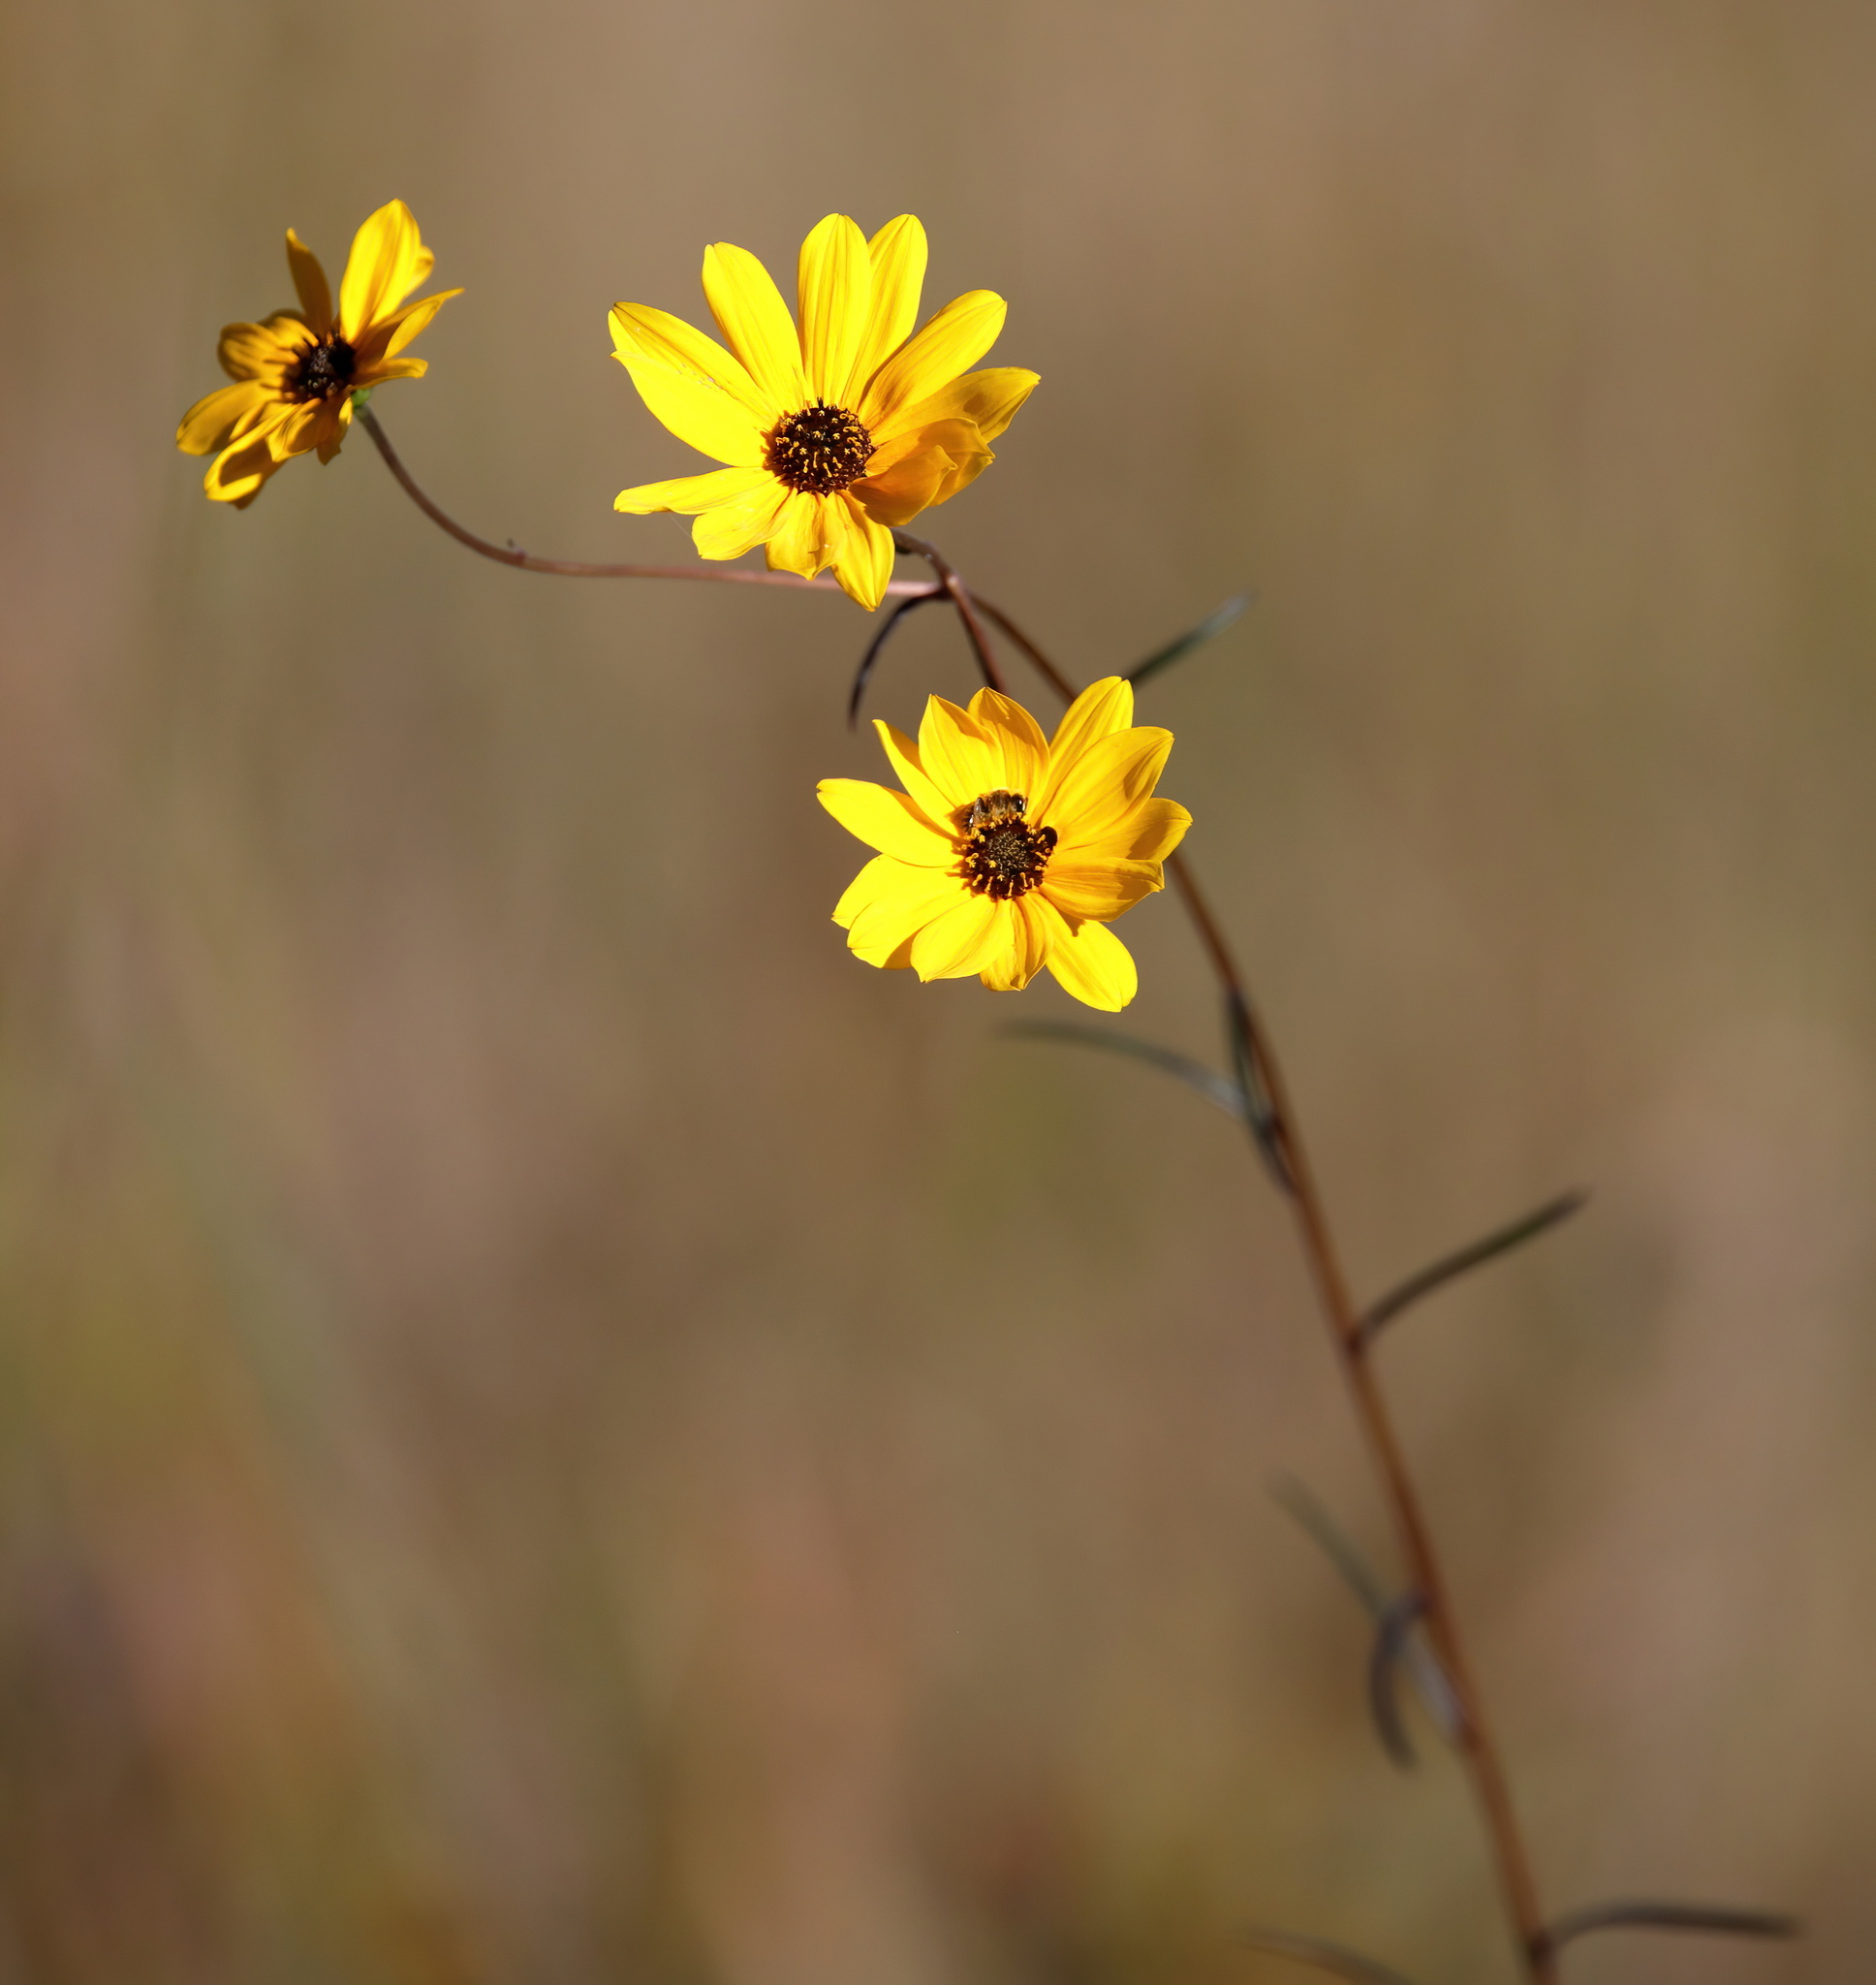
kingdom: Plantae
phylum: Tracheophyta
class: Magnoliopsida
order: Asterales
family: Asteraceae
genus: Helianthus
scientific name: Helianthus angustifolius
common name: Swamp sunflower
